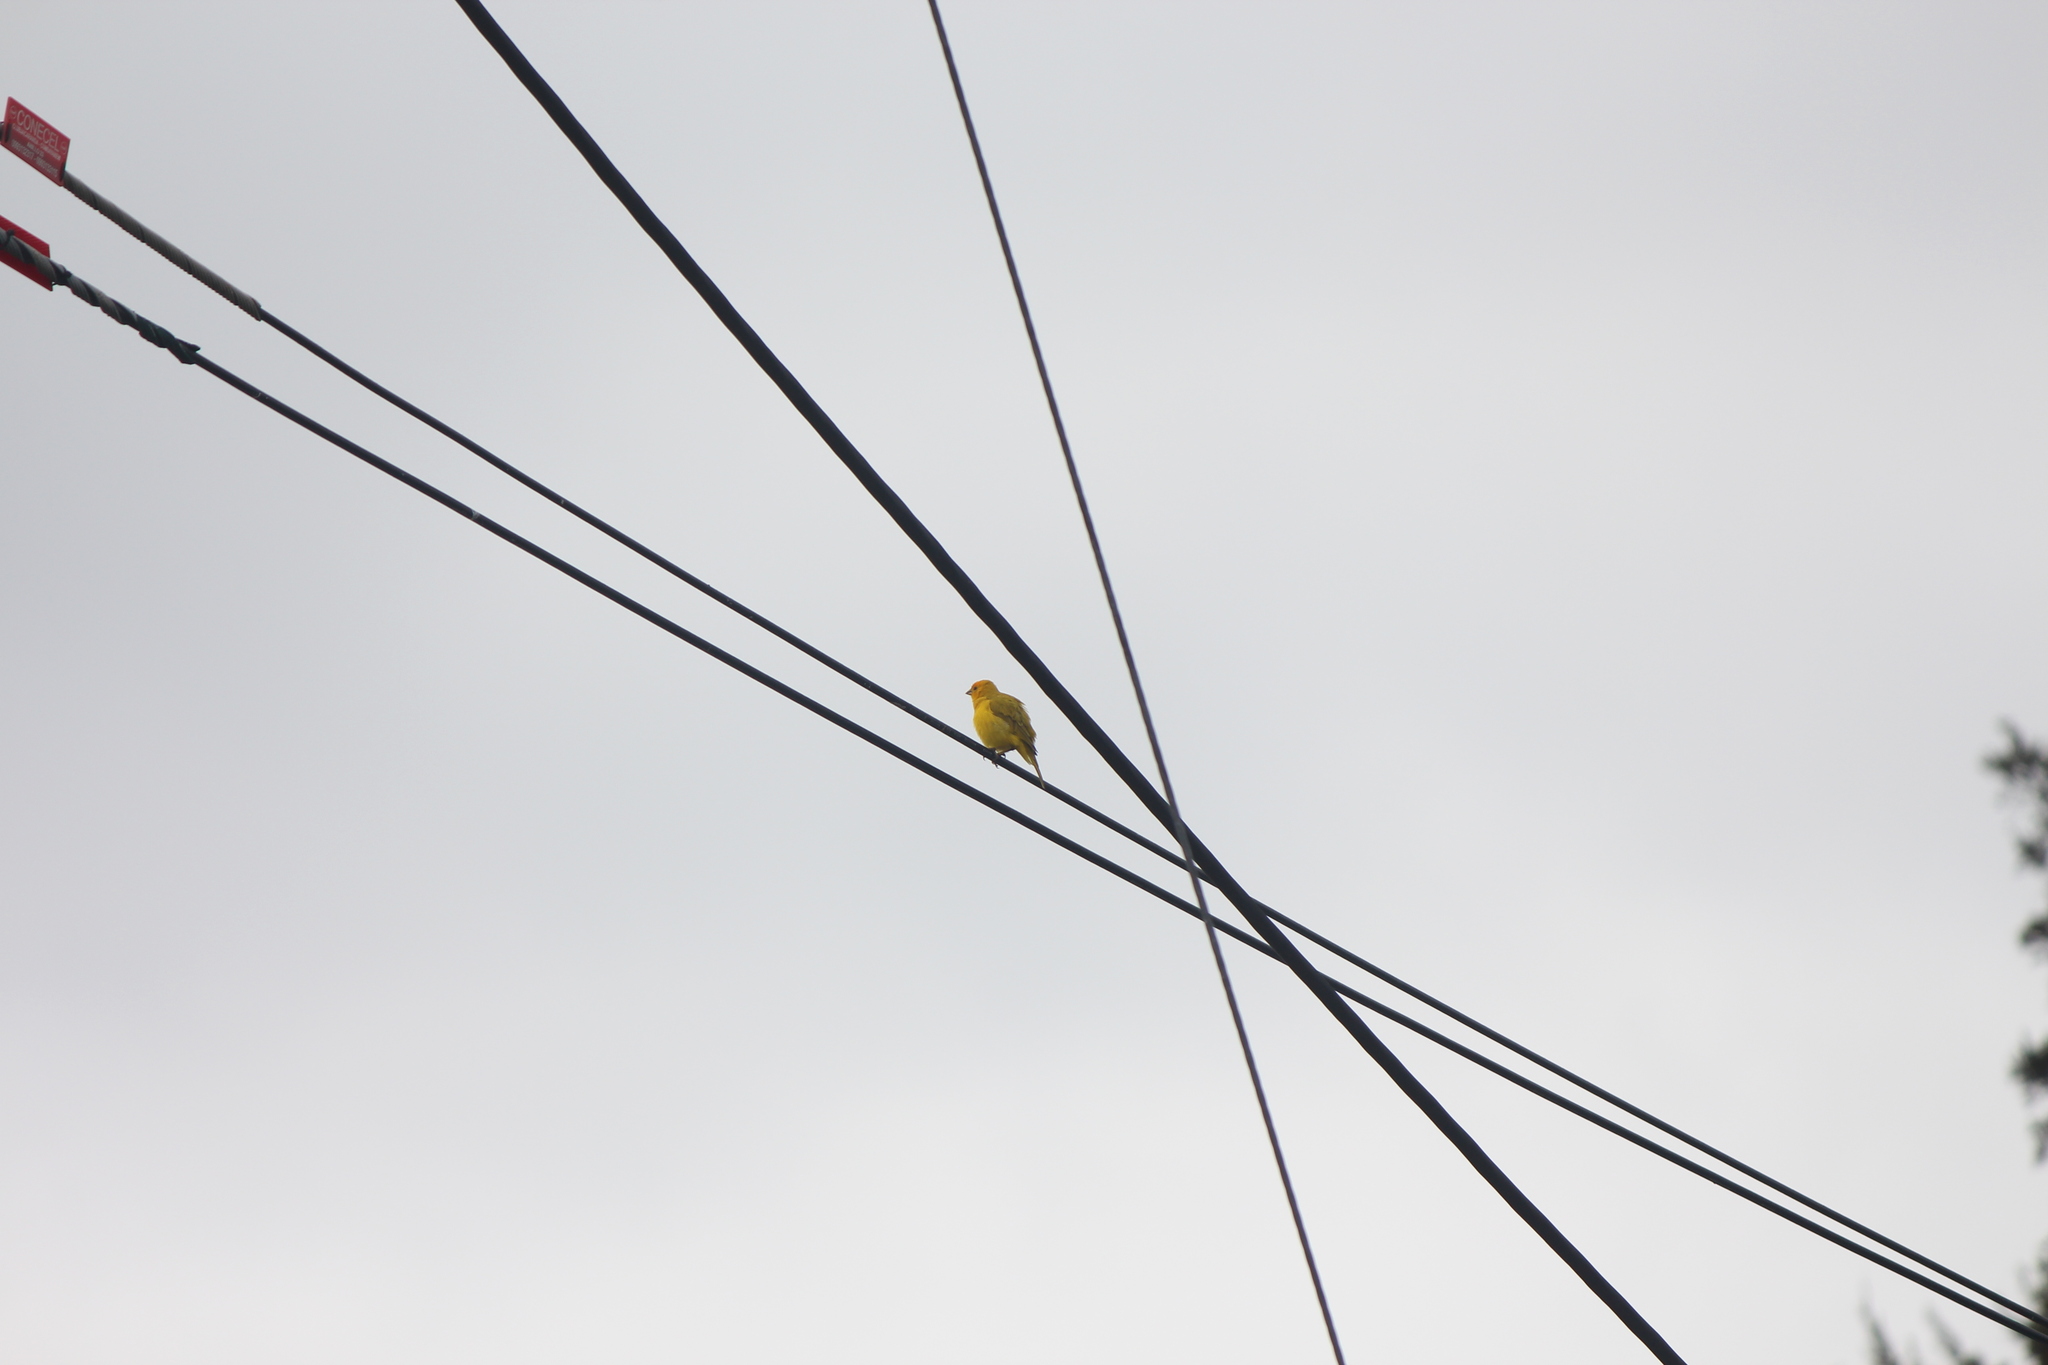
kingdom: Animalia
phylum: Chordata
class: Aves
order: Passeriformes
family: Thraupidae
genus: Sicalis
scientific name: Sicalis flaveola
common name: Saffron finch
